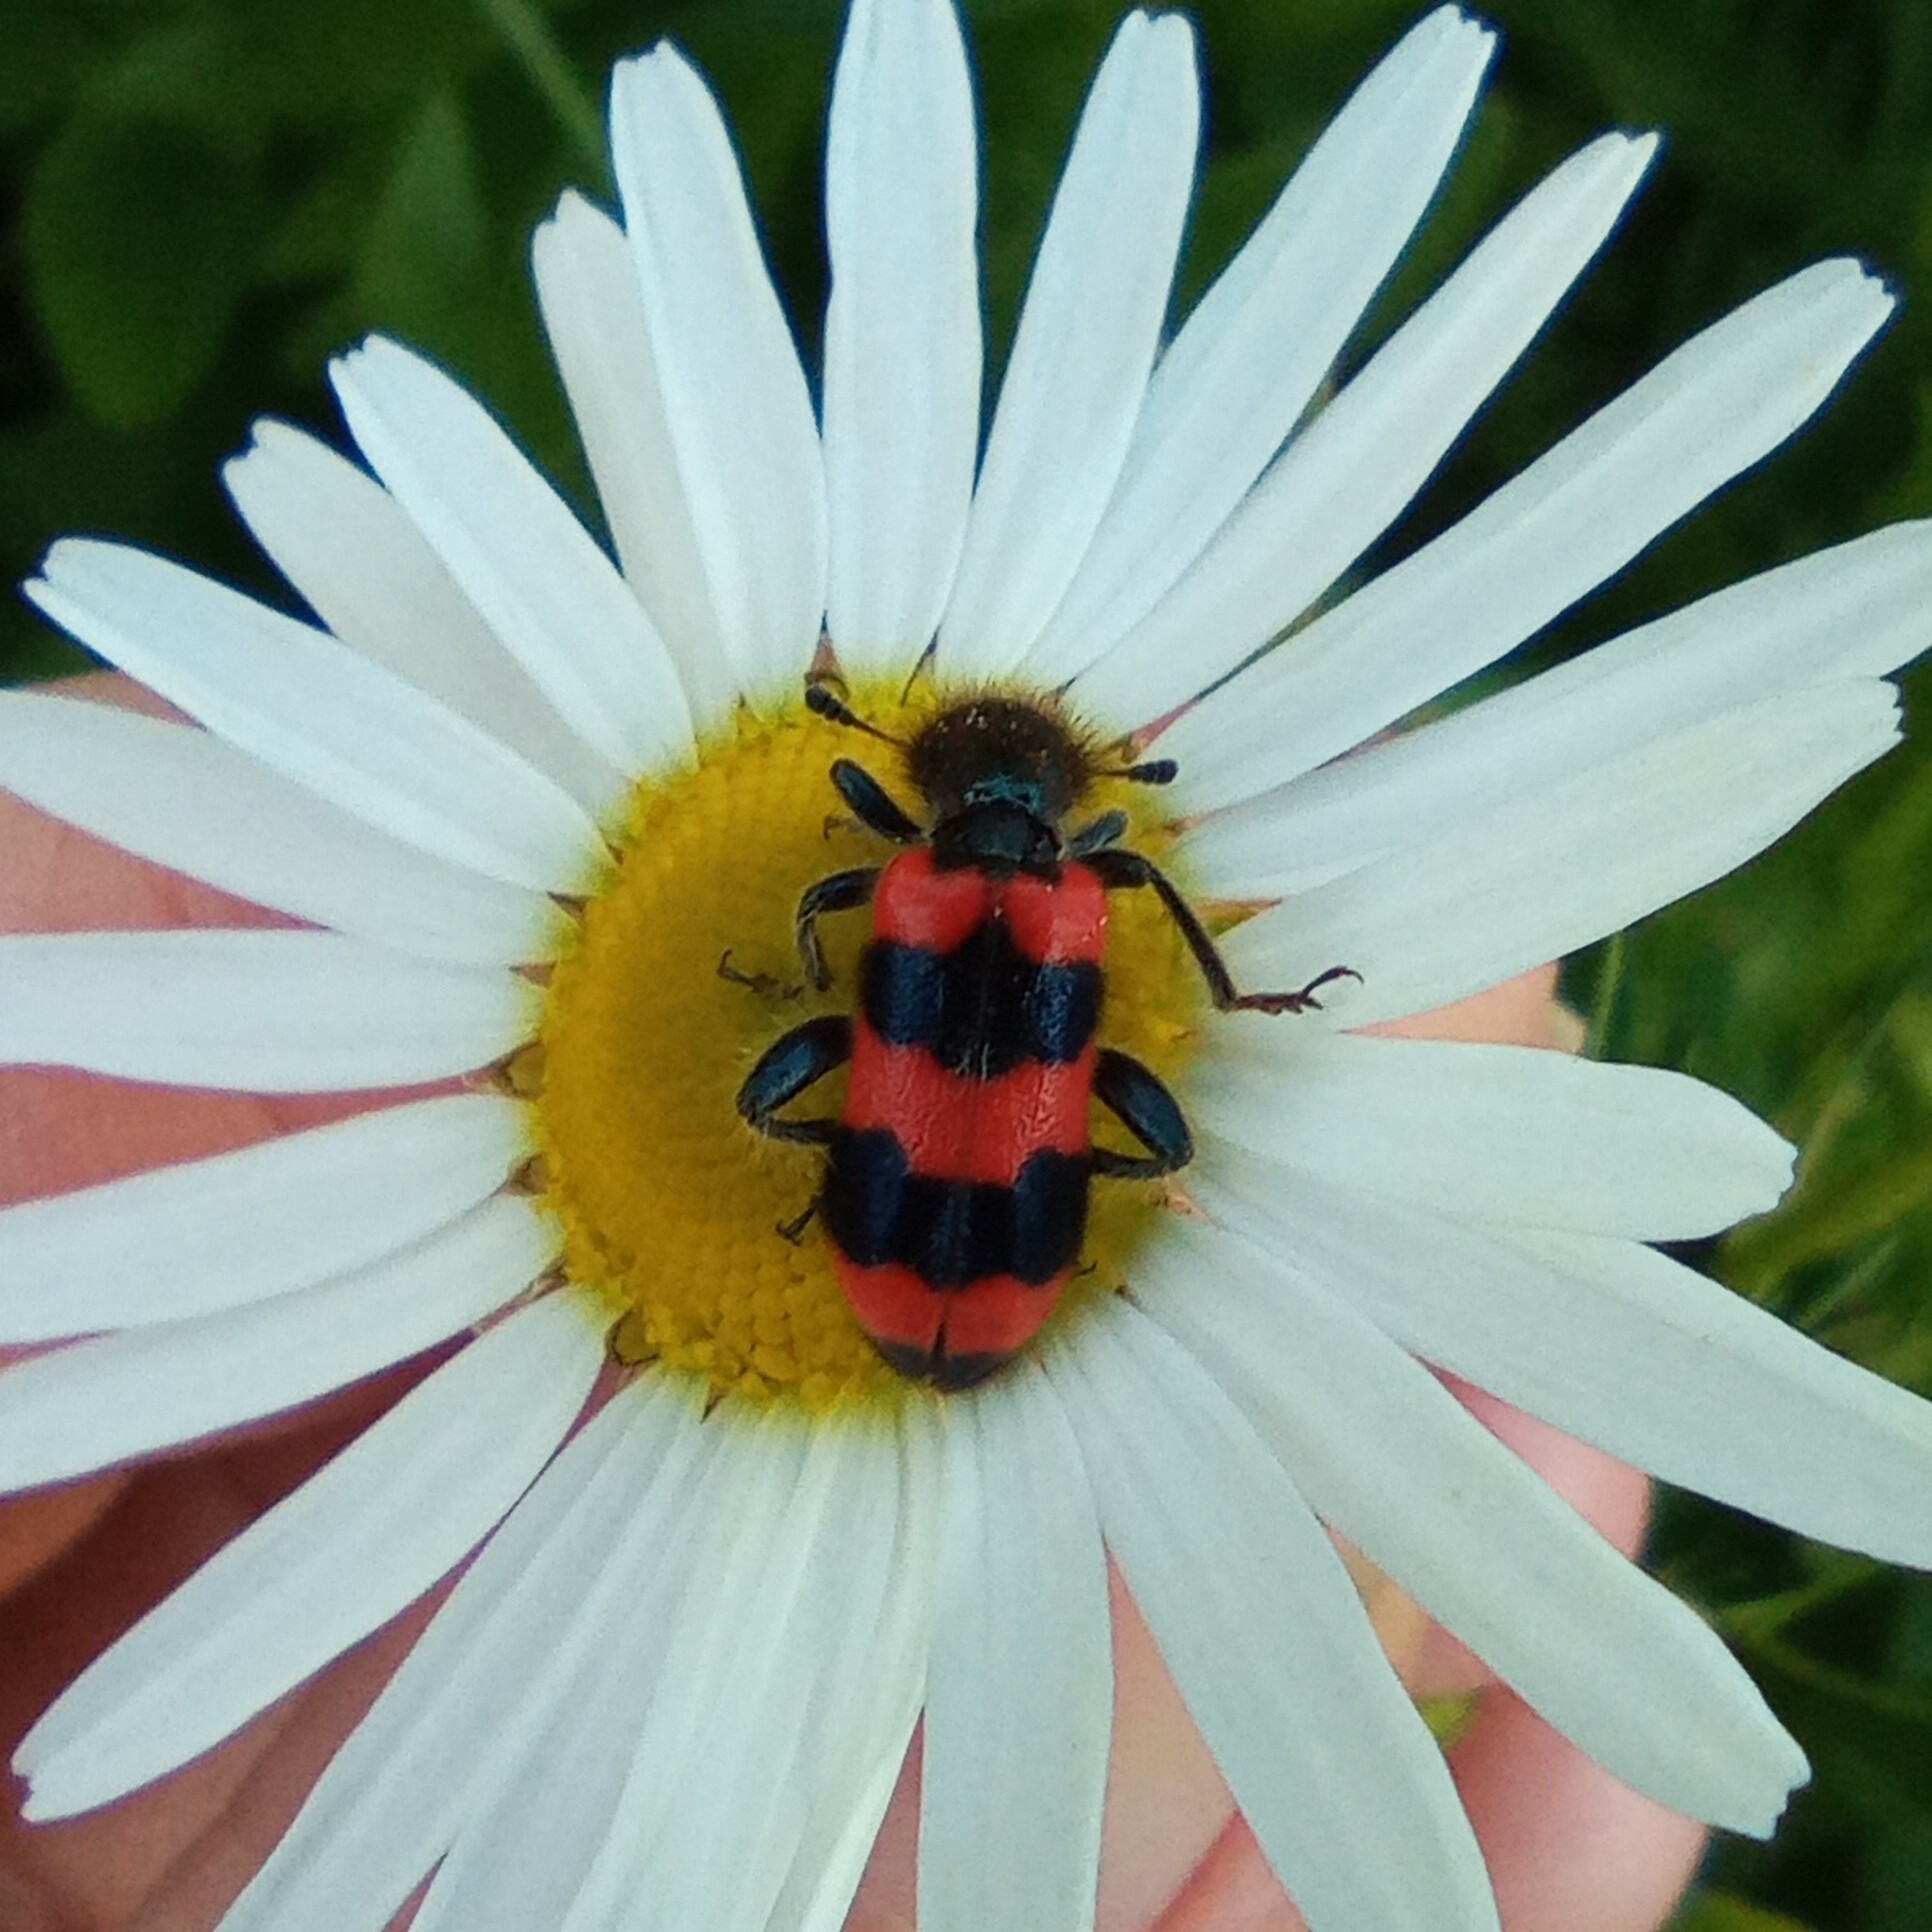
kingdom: Animalia
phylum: Arthropoda
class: Insecta
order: Coleoptera
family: Cleridae
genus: Trichodes
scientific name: Trichodes apiarius
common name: Bee-eating beetle
